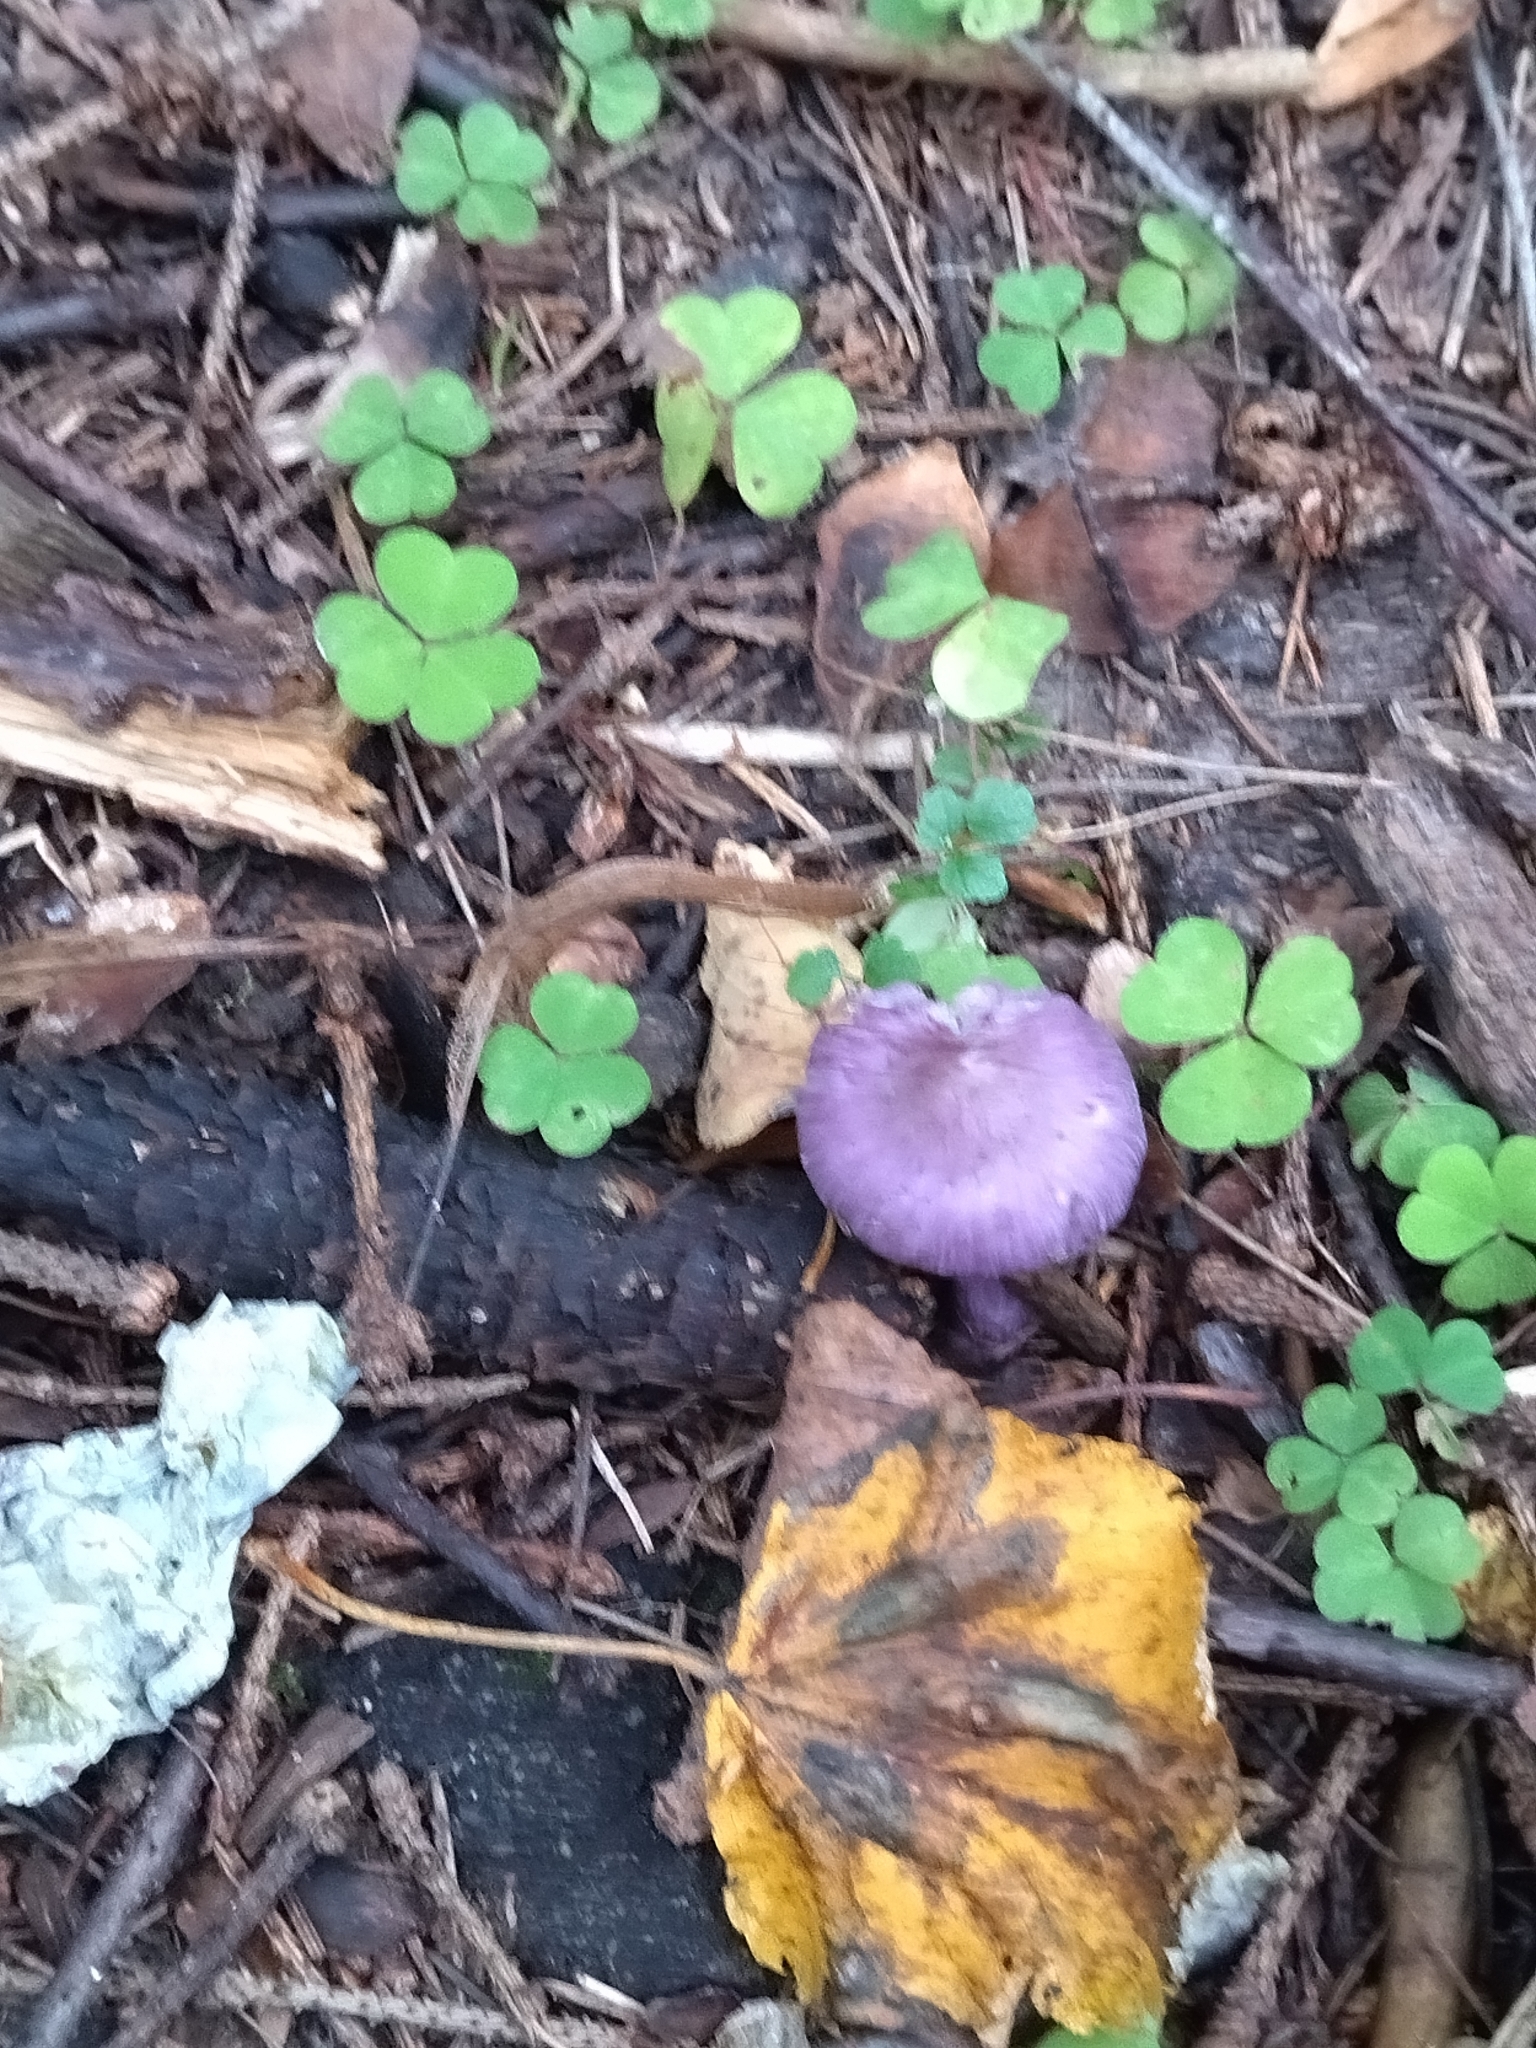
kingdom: Fungi
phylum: Basidiomycota
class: Agaricomycetes
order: Agaricales
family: Inocybaceae
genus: Inocybe
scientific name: Inocybe geophylla
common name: White fibrecap
